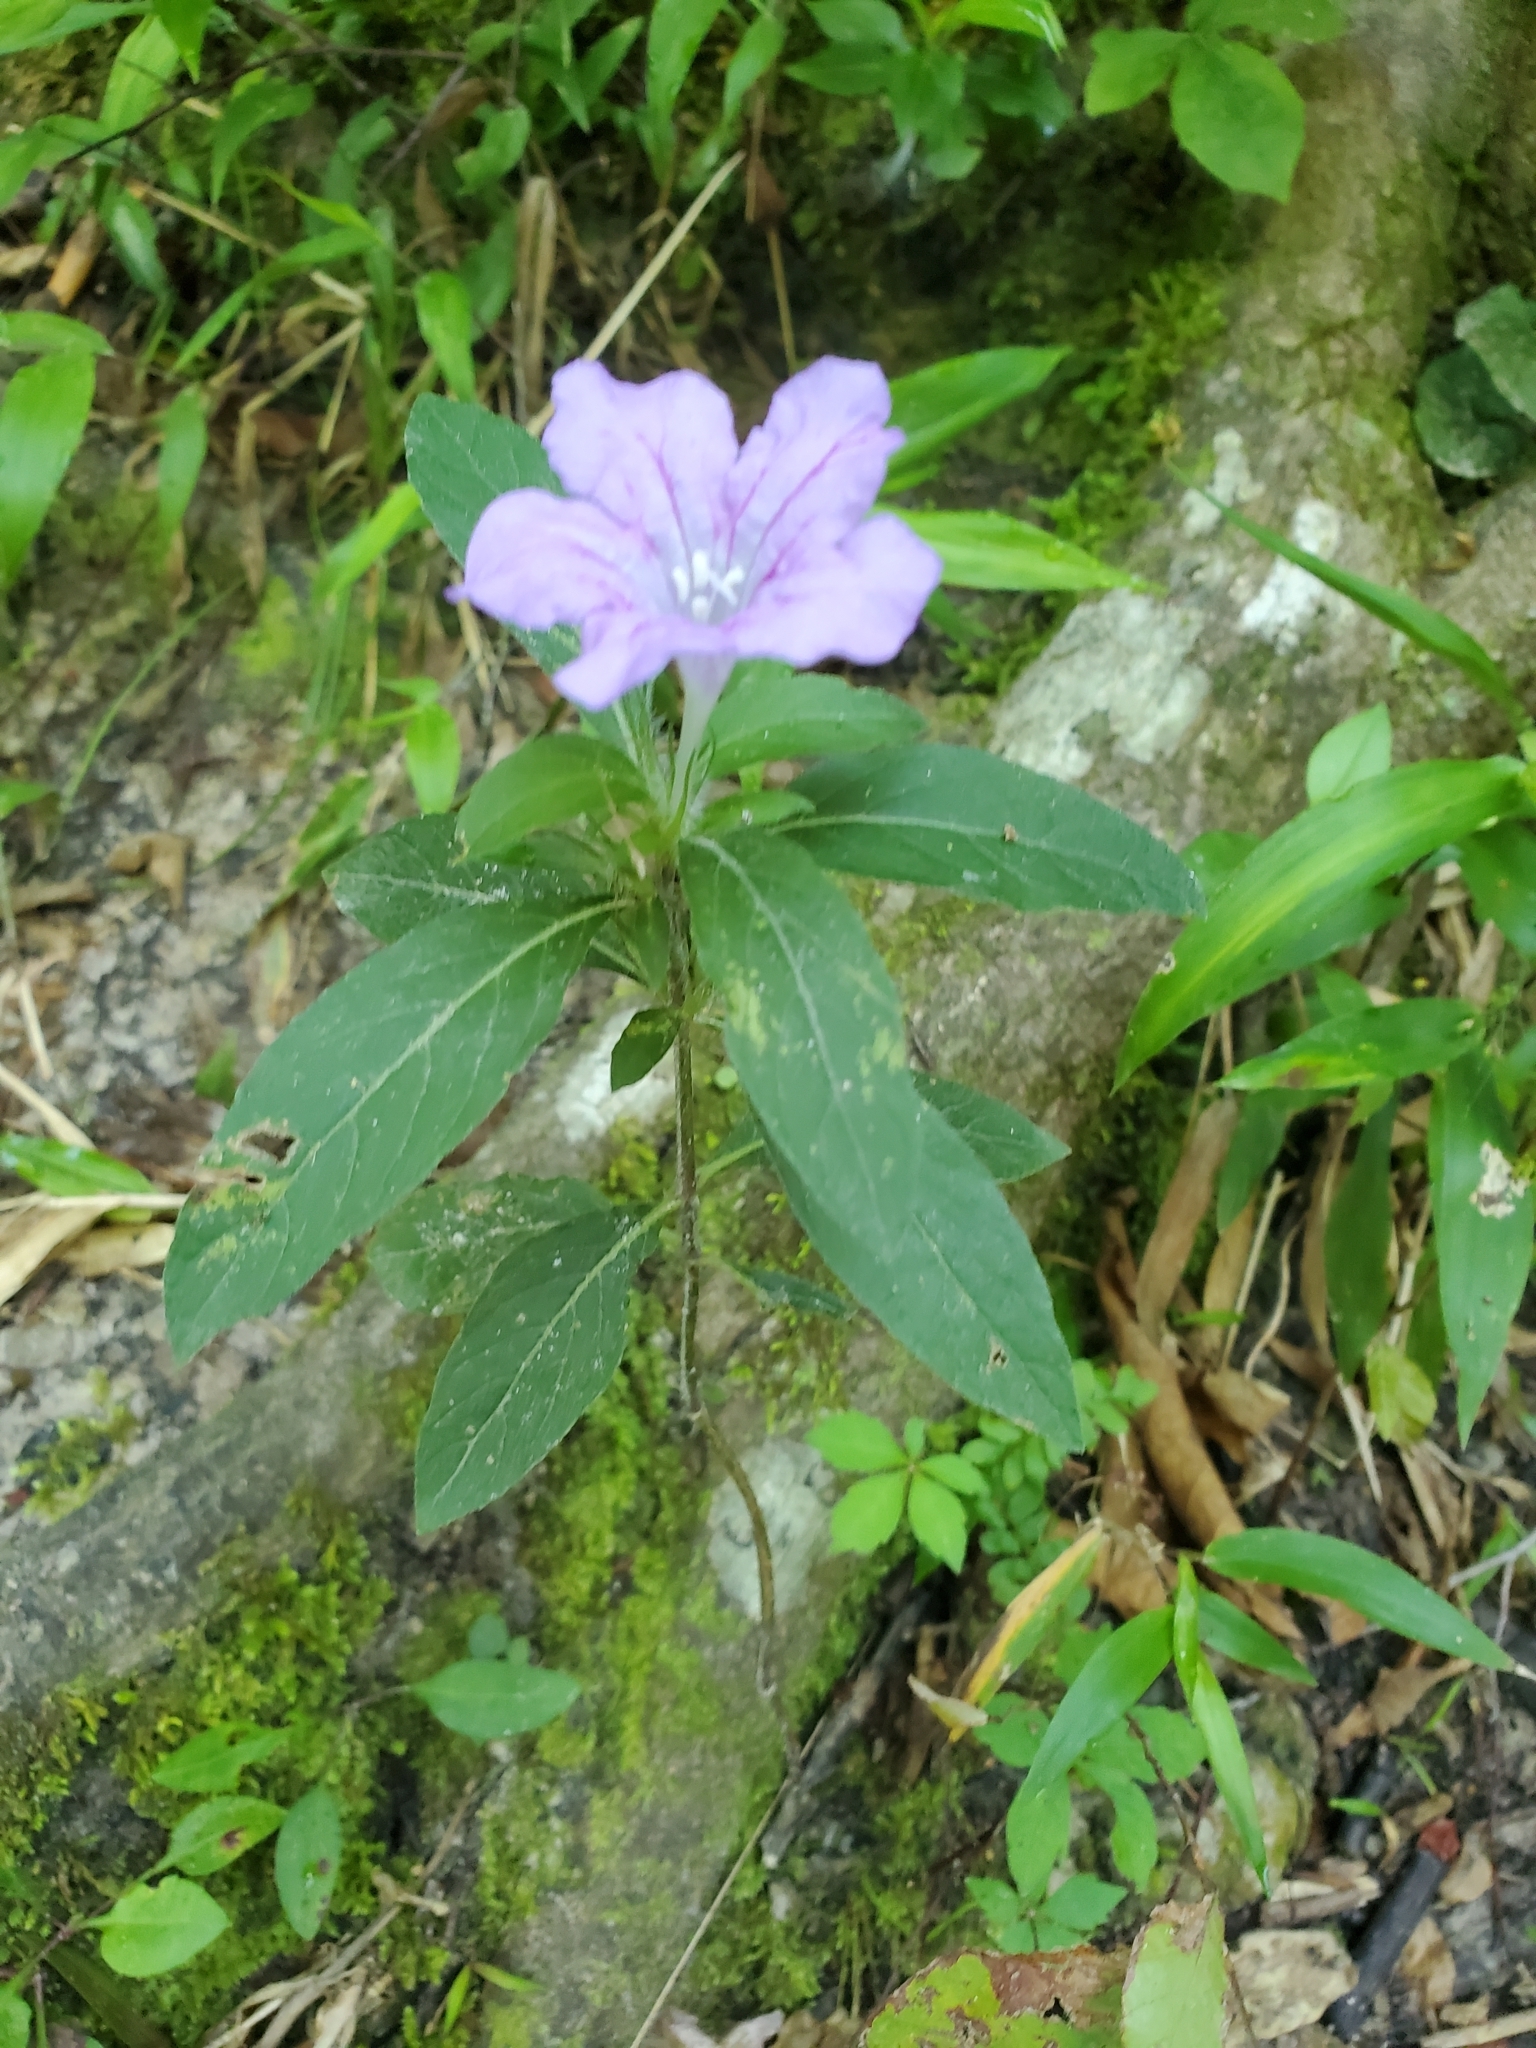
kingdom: Plantae
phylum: Tracheophyta
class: Magnoliopsida
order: Lamiales
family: Acanthaceae
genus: Ruellia
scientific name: Ruellia caroliniensis
